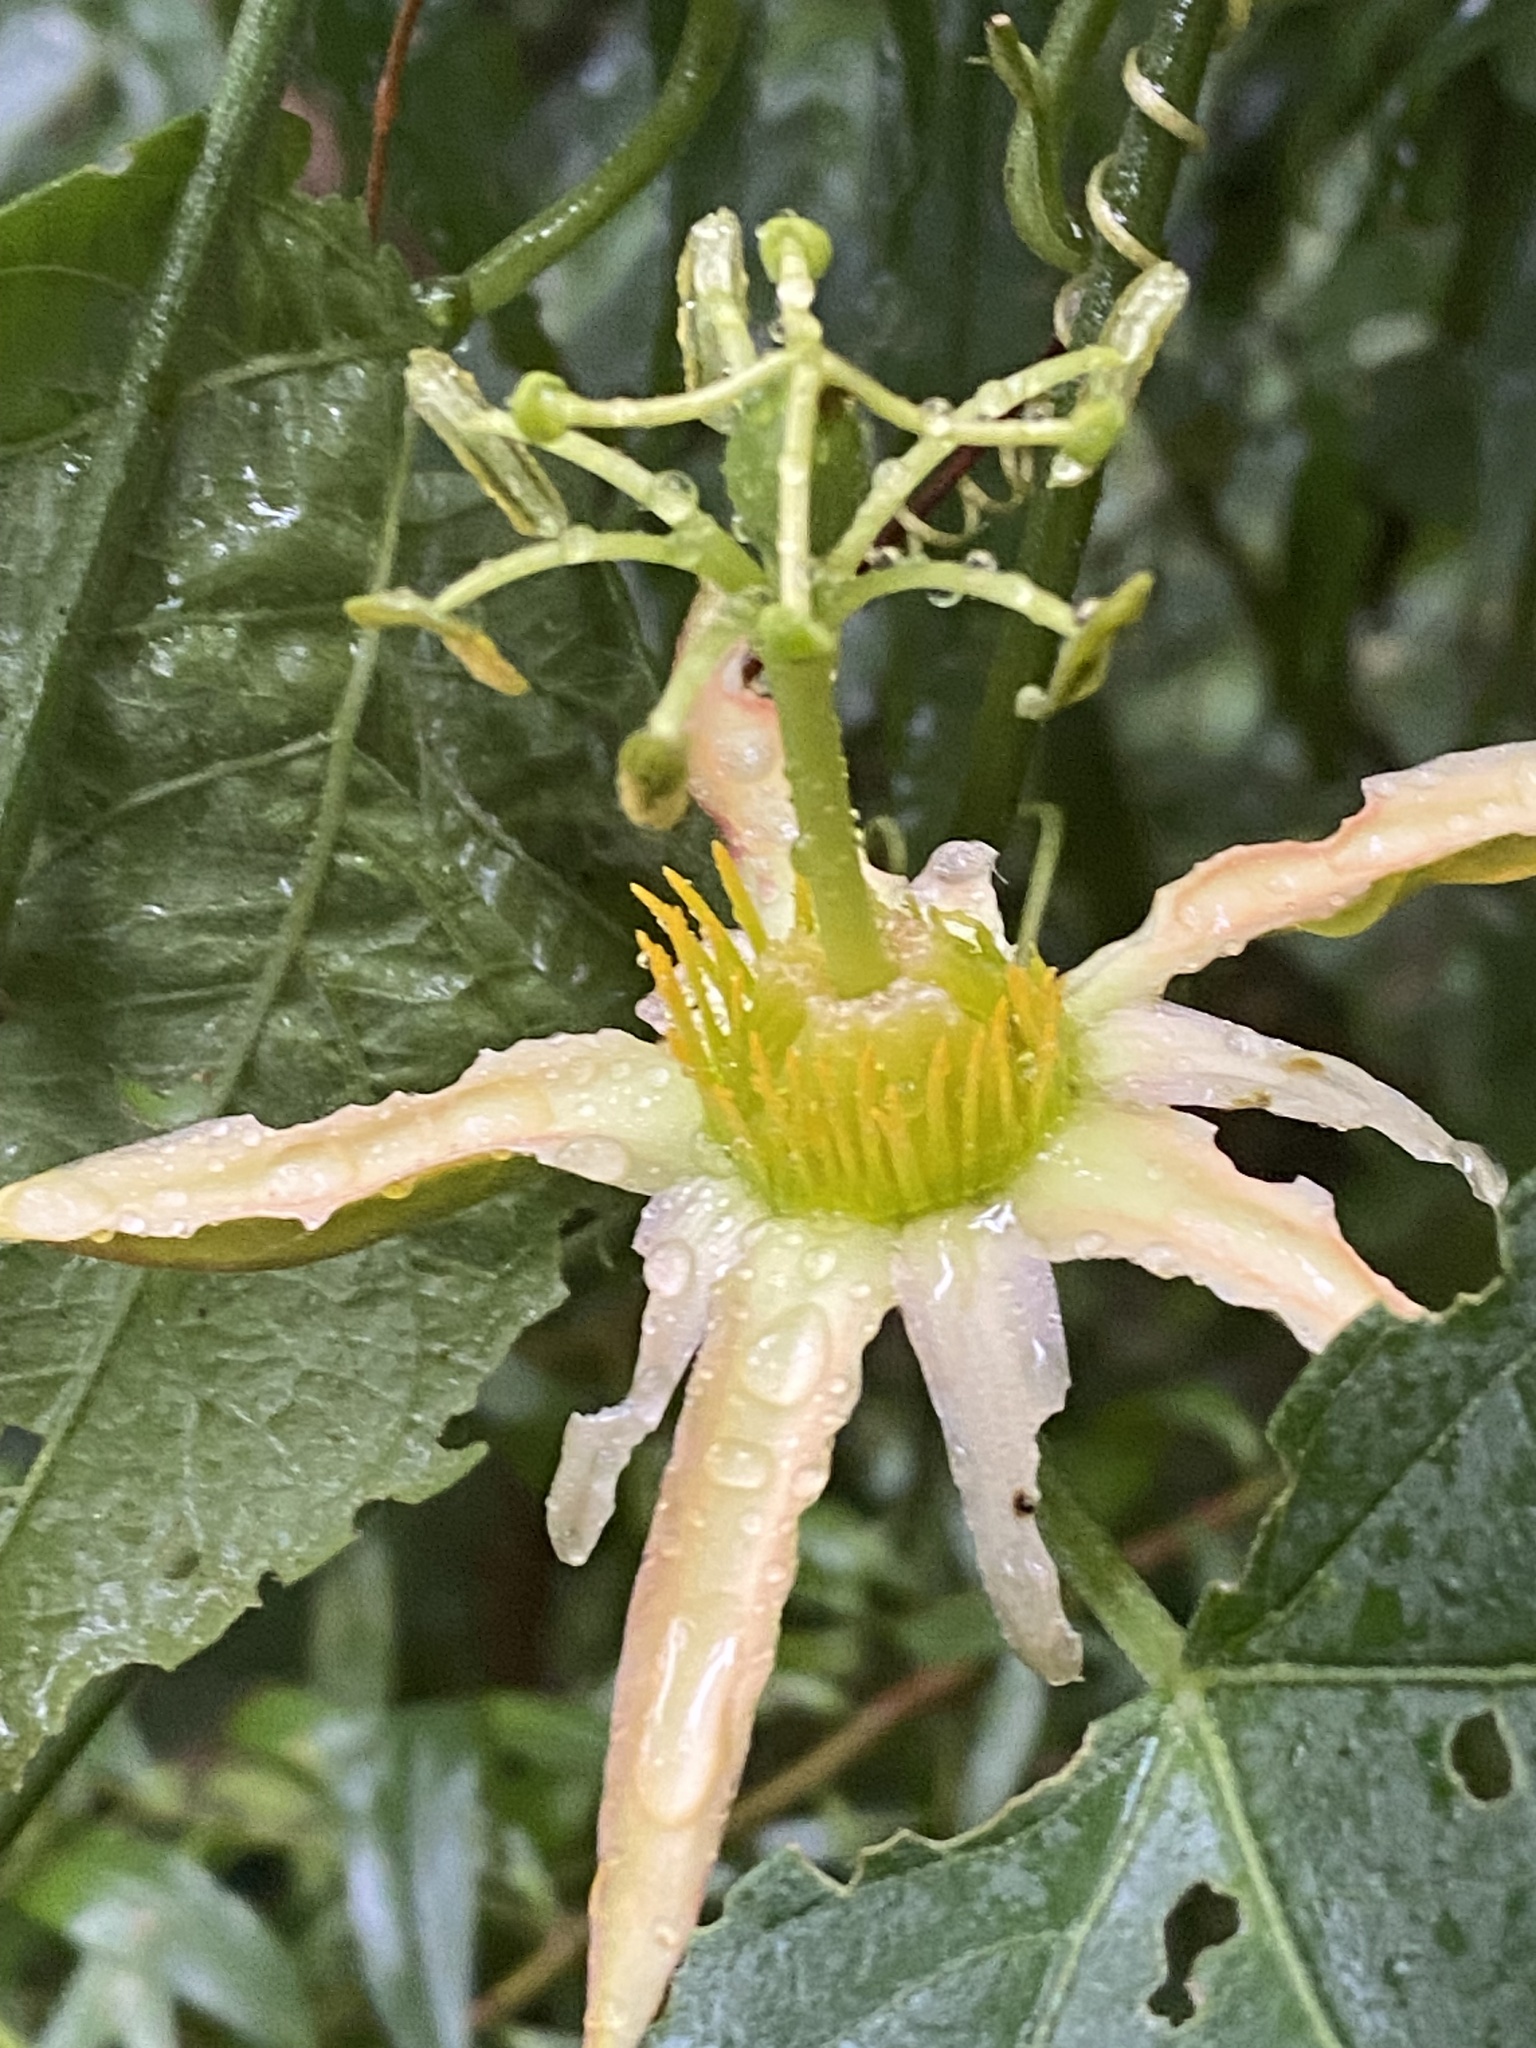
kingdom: Plantae
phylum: Tracheophyta
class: Magnoliopsida
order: Malpighiales
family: Passifloraceae
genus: Passiflora
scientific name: Passiflora herbertiana
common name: Yellow passionflower
